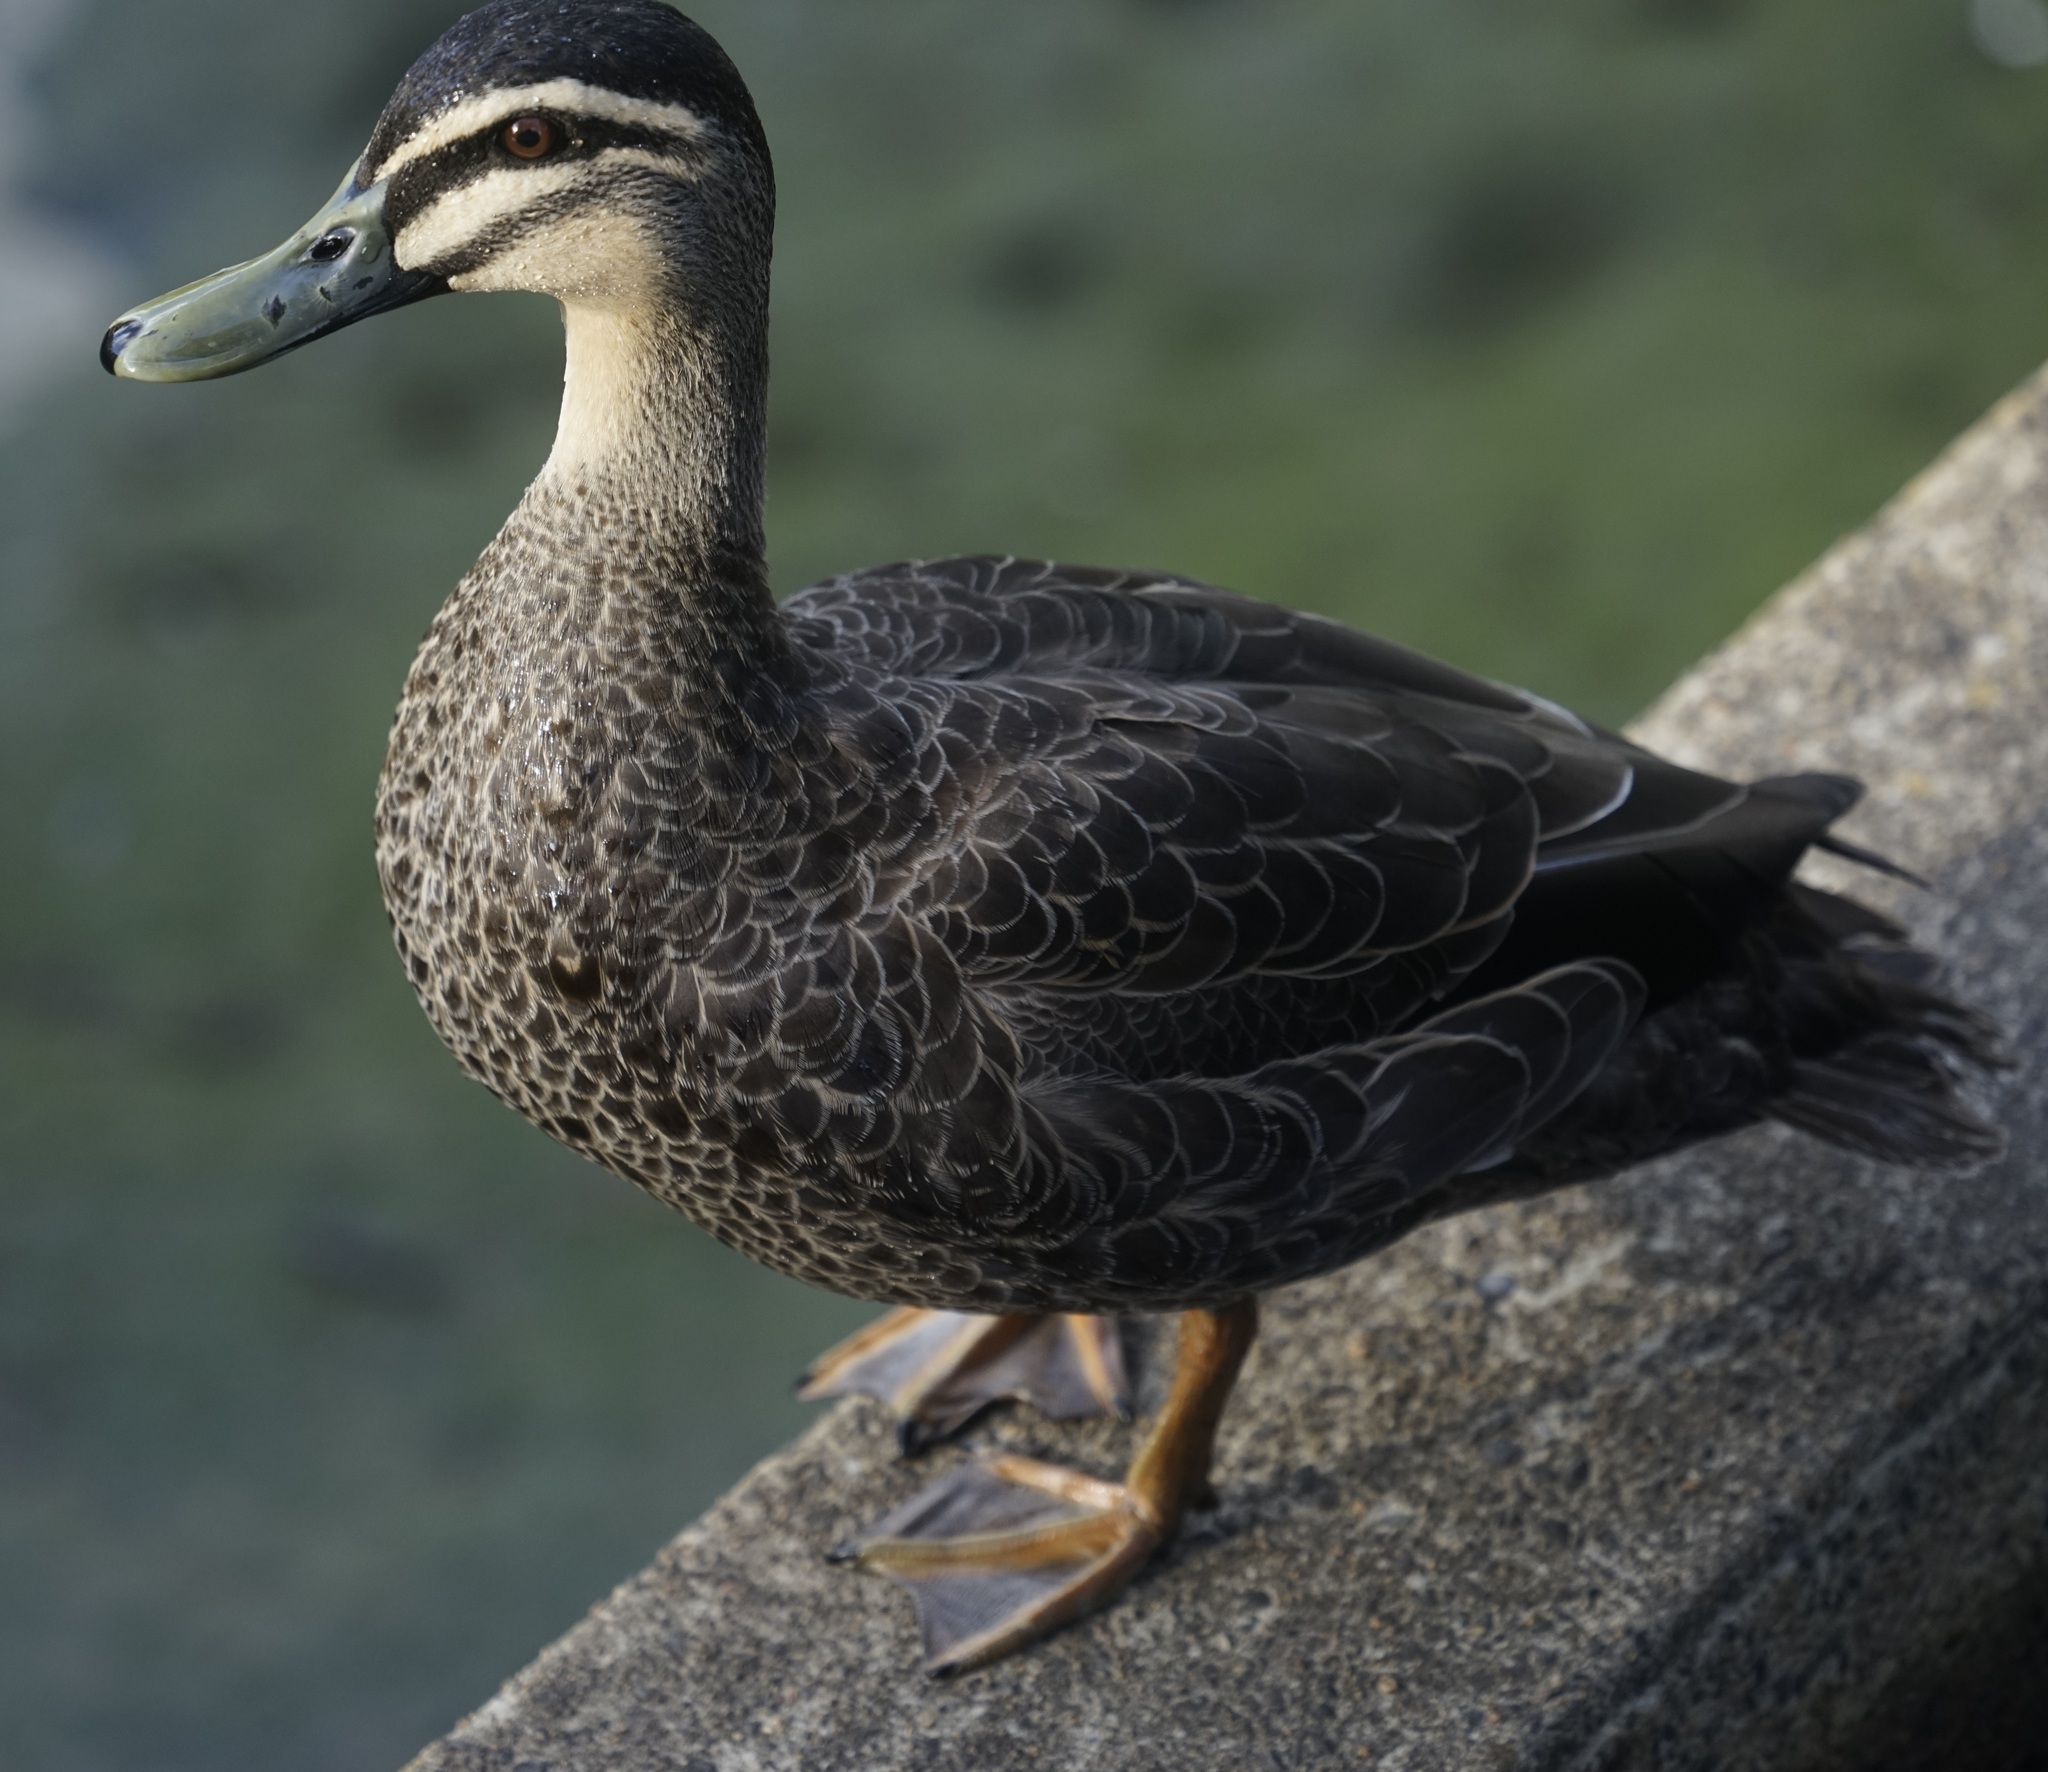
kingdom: Animalia
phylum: Chordata
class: Aves
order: Anseriformes
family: Anatidae
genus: Anas
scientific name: Anas
